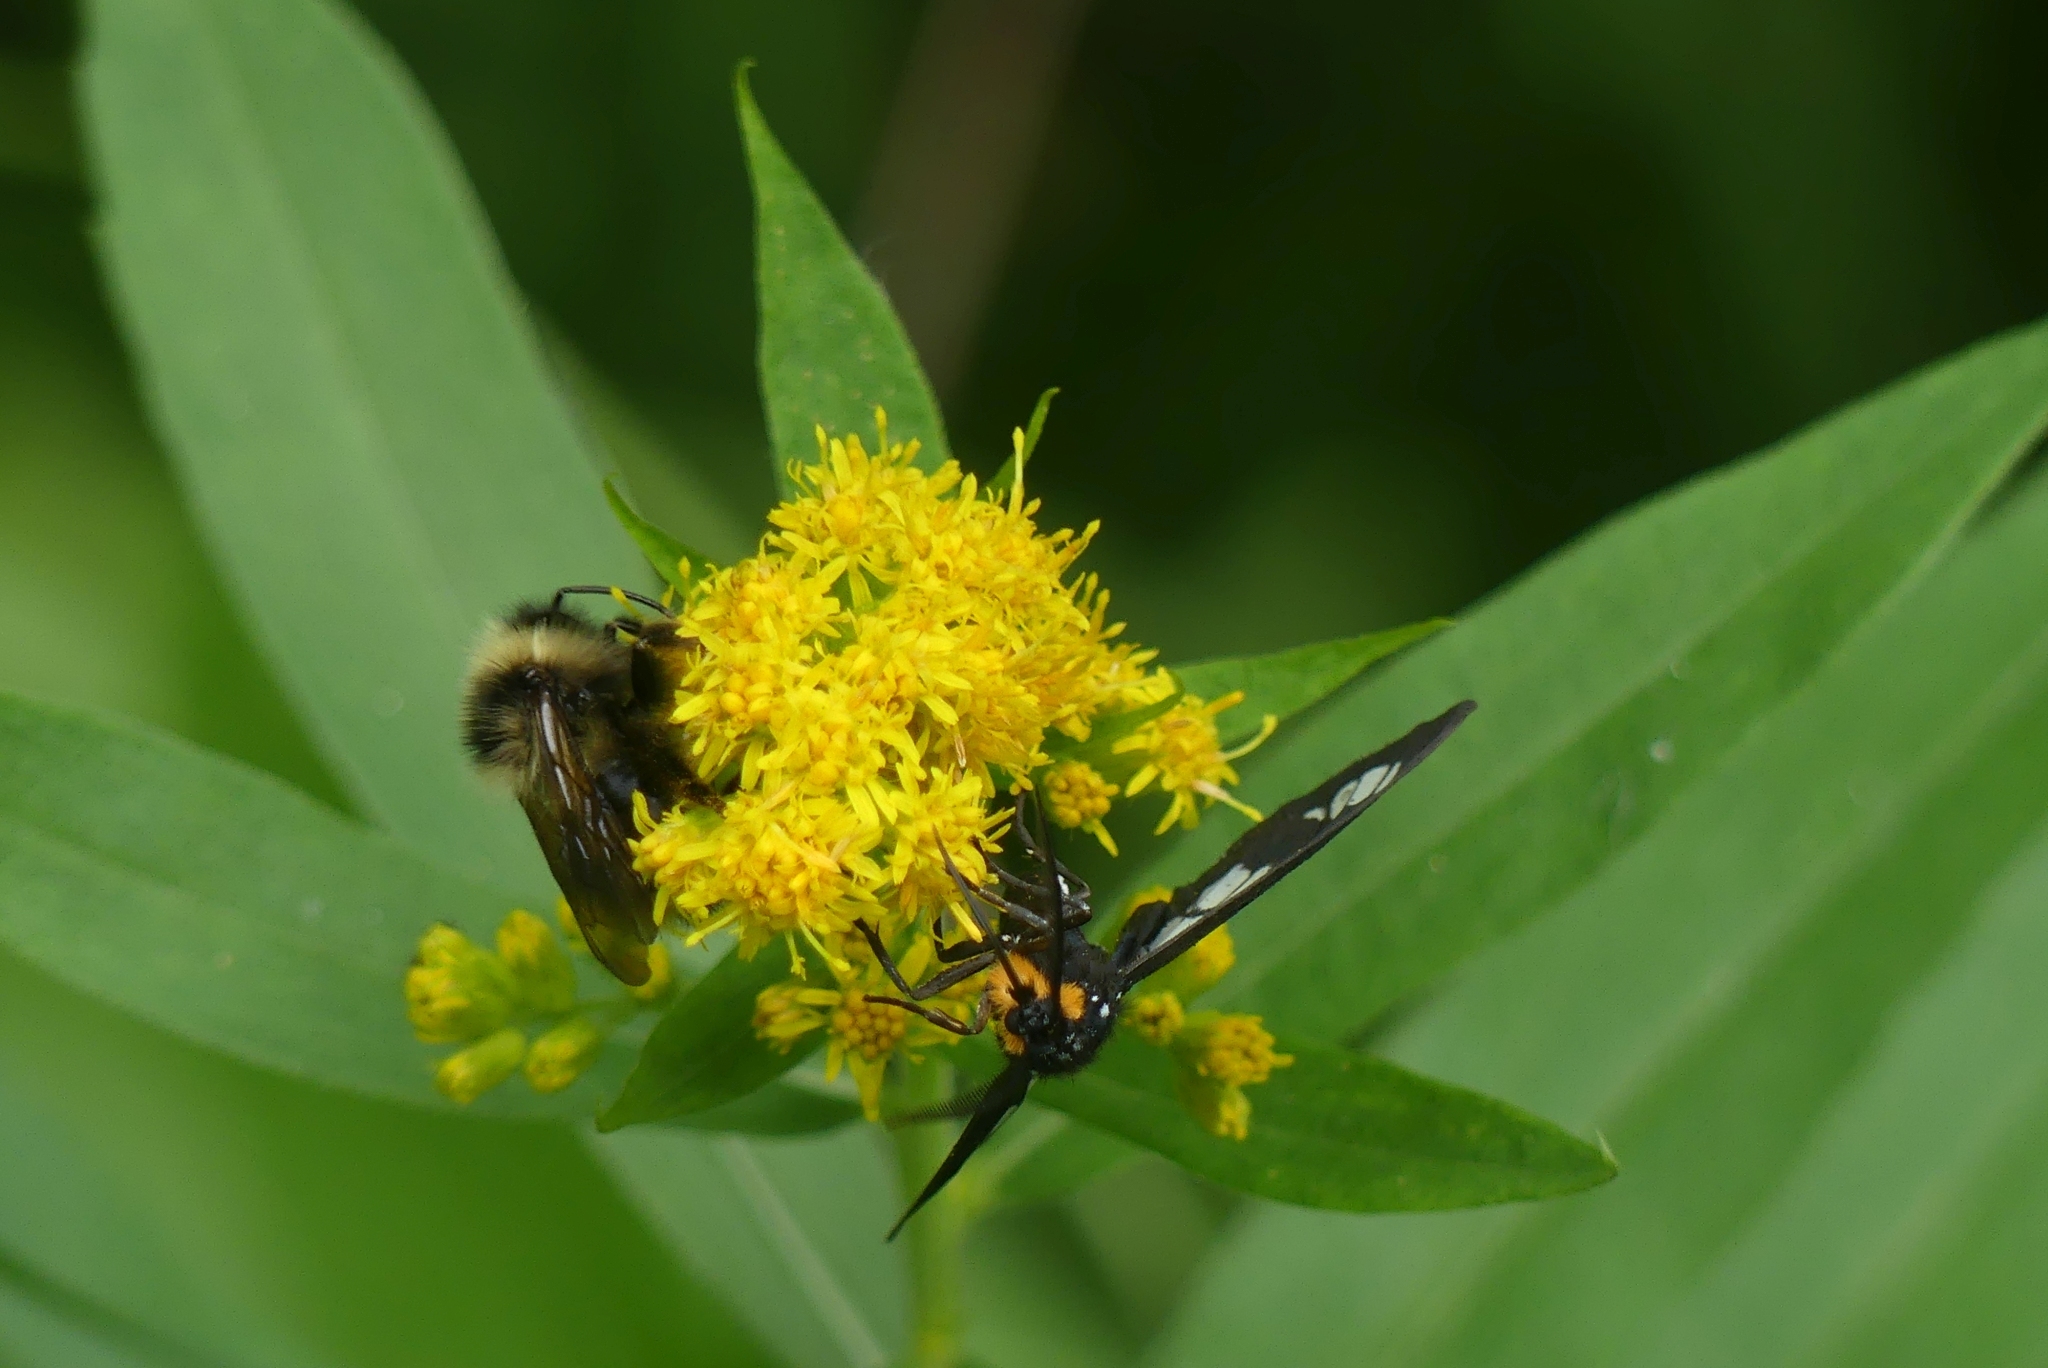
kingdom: Animalia
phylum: Arthropoda
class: Insecta
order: Lepidoptera
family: Erebidae
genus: Gnophaela
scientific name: Gnophaela vermiculata
